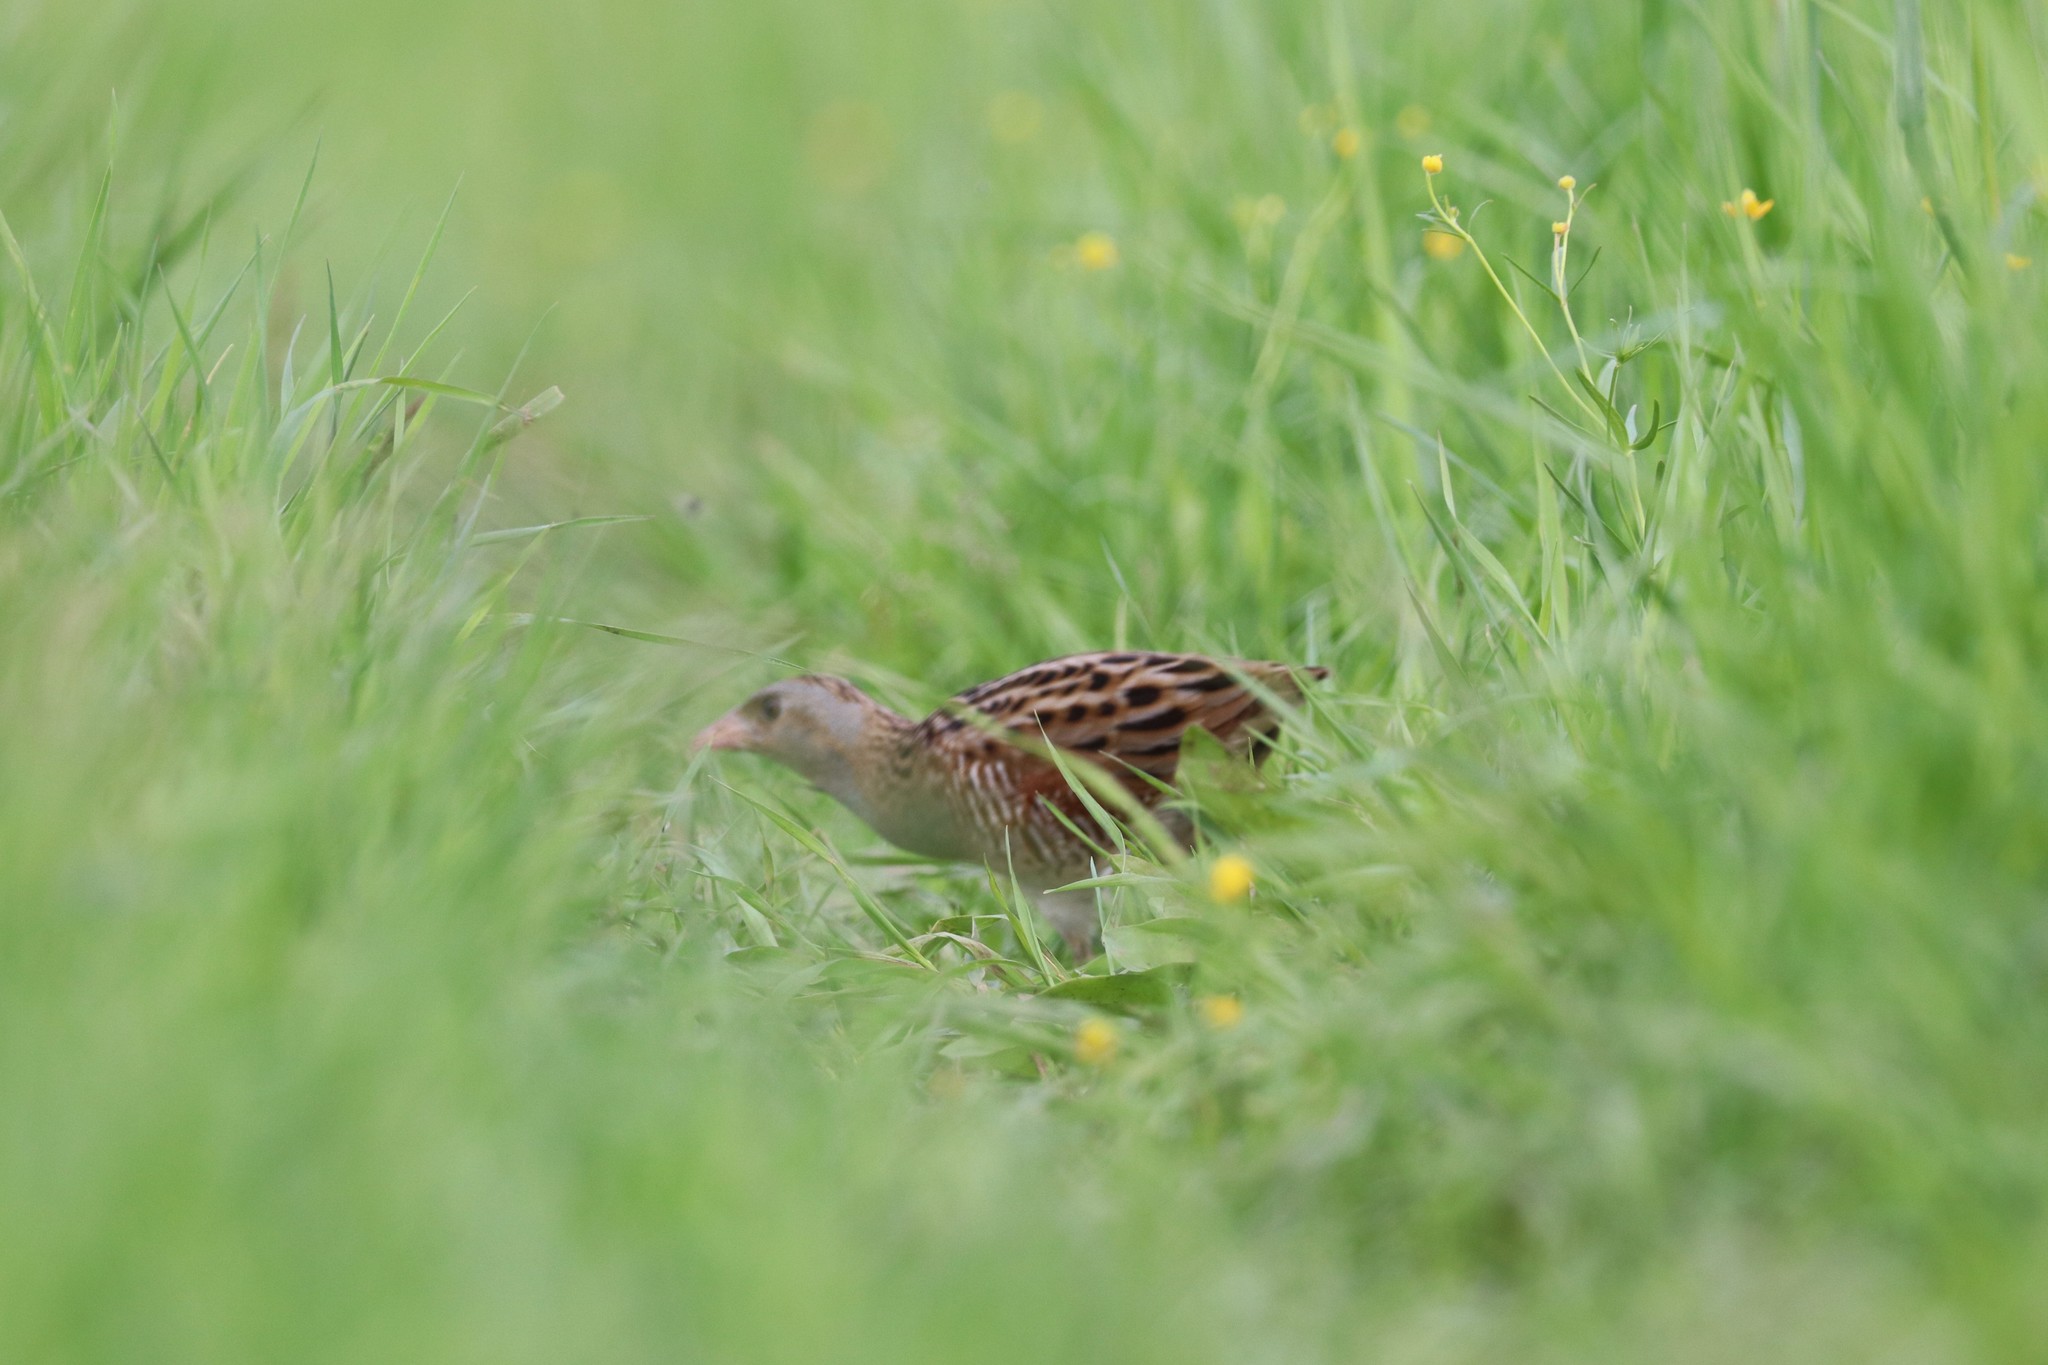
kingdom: Animalia
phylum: Chordata
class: Aves
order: Gruiformes
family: Rallidae
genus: Crex
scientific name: Crex crex
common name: Corn crake
